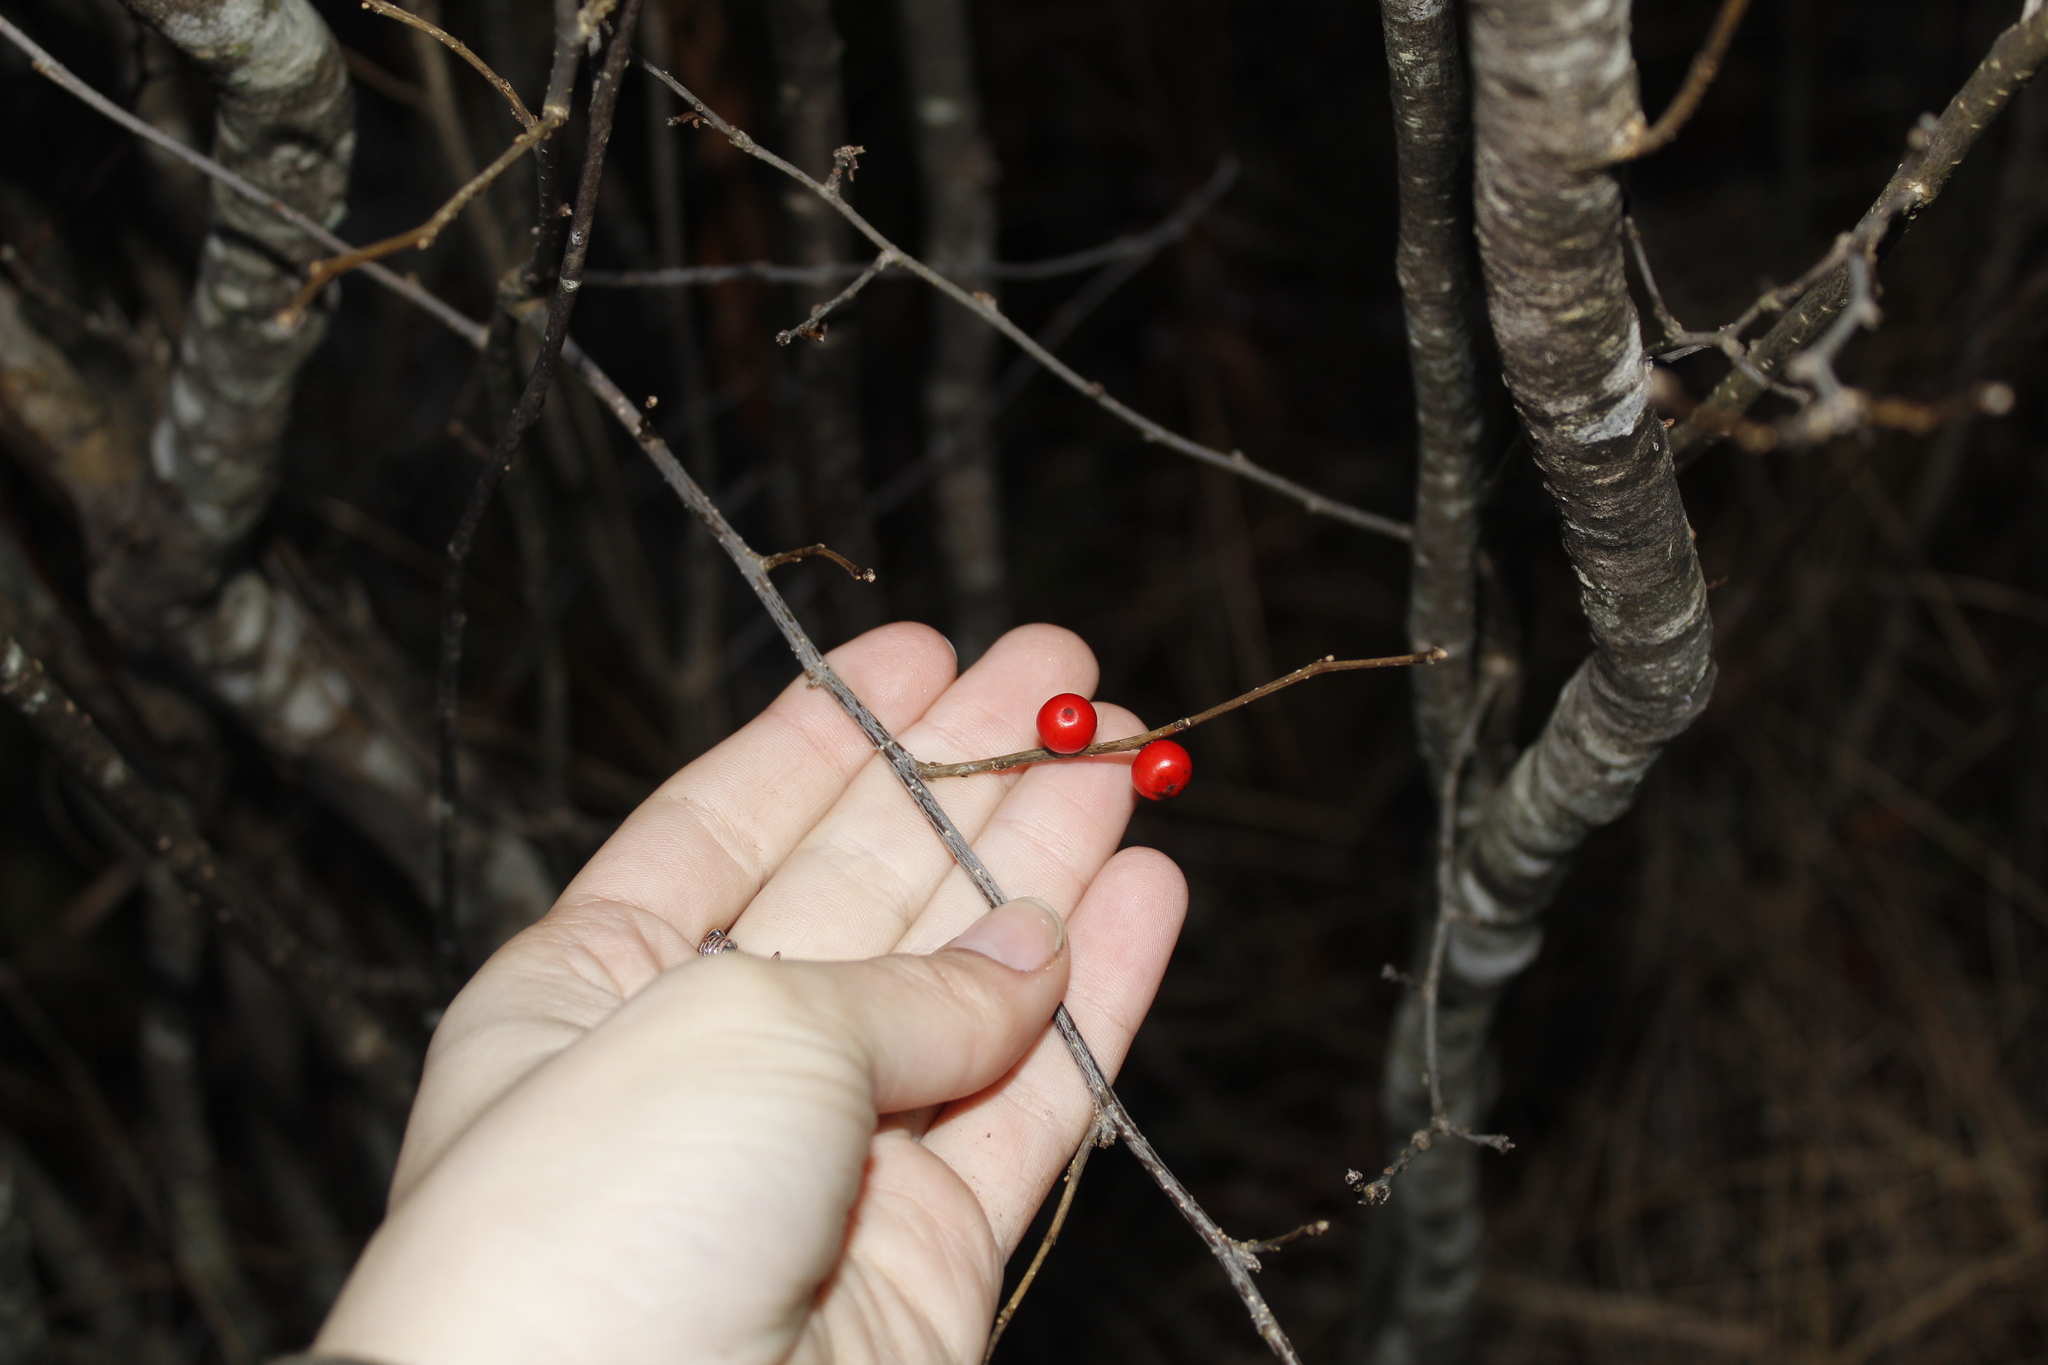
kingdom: Plantae
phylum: Tracheophyta
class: Magnoliopsida
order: Aquifoliales
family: Aquifoliaceae
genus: Ilex
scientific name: Ilex verticillata
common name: Virginia winterberry
